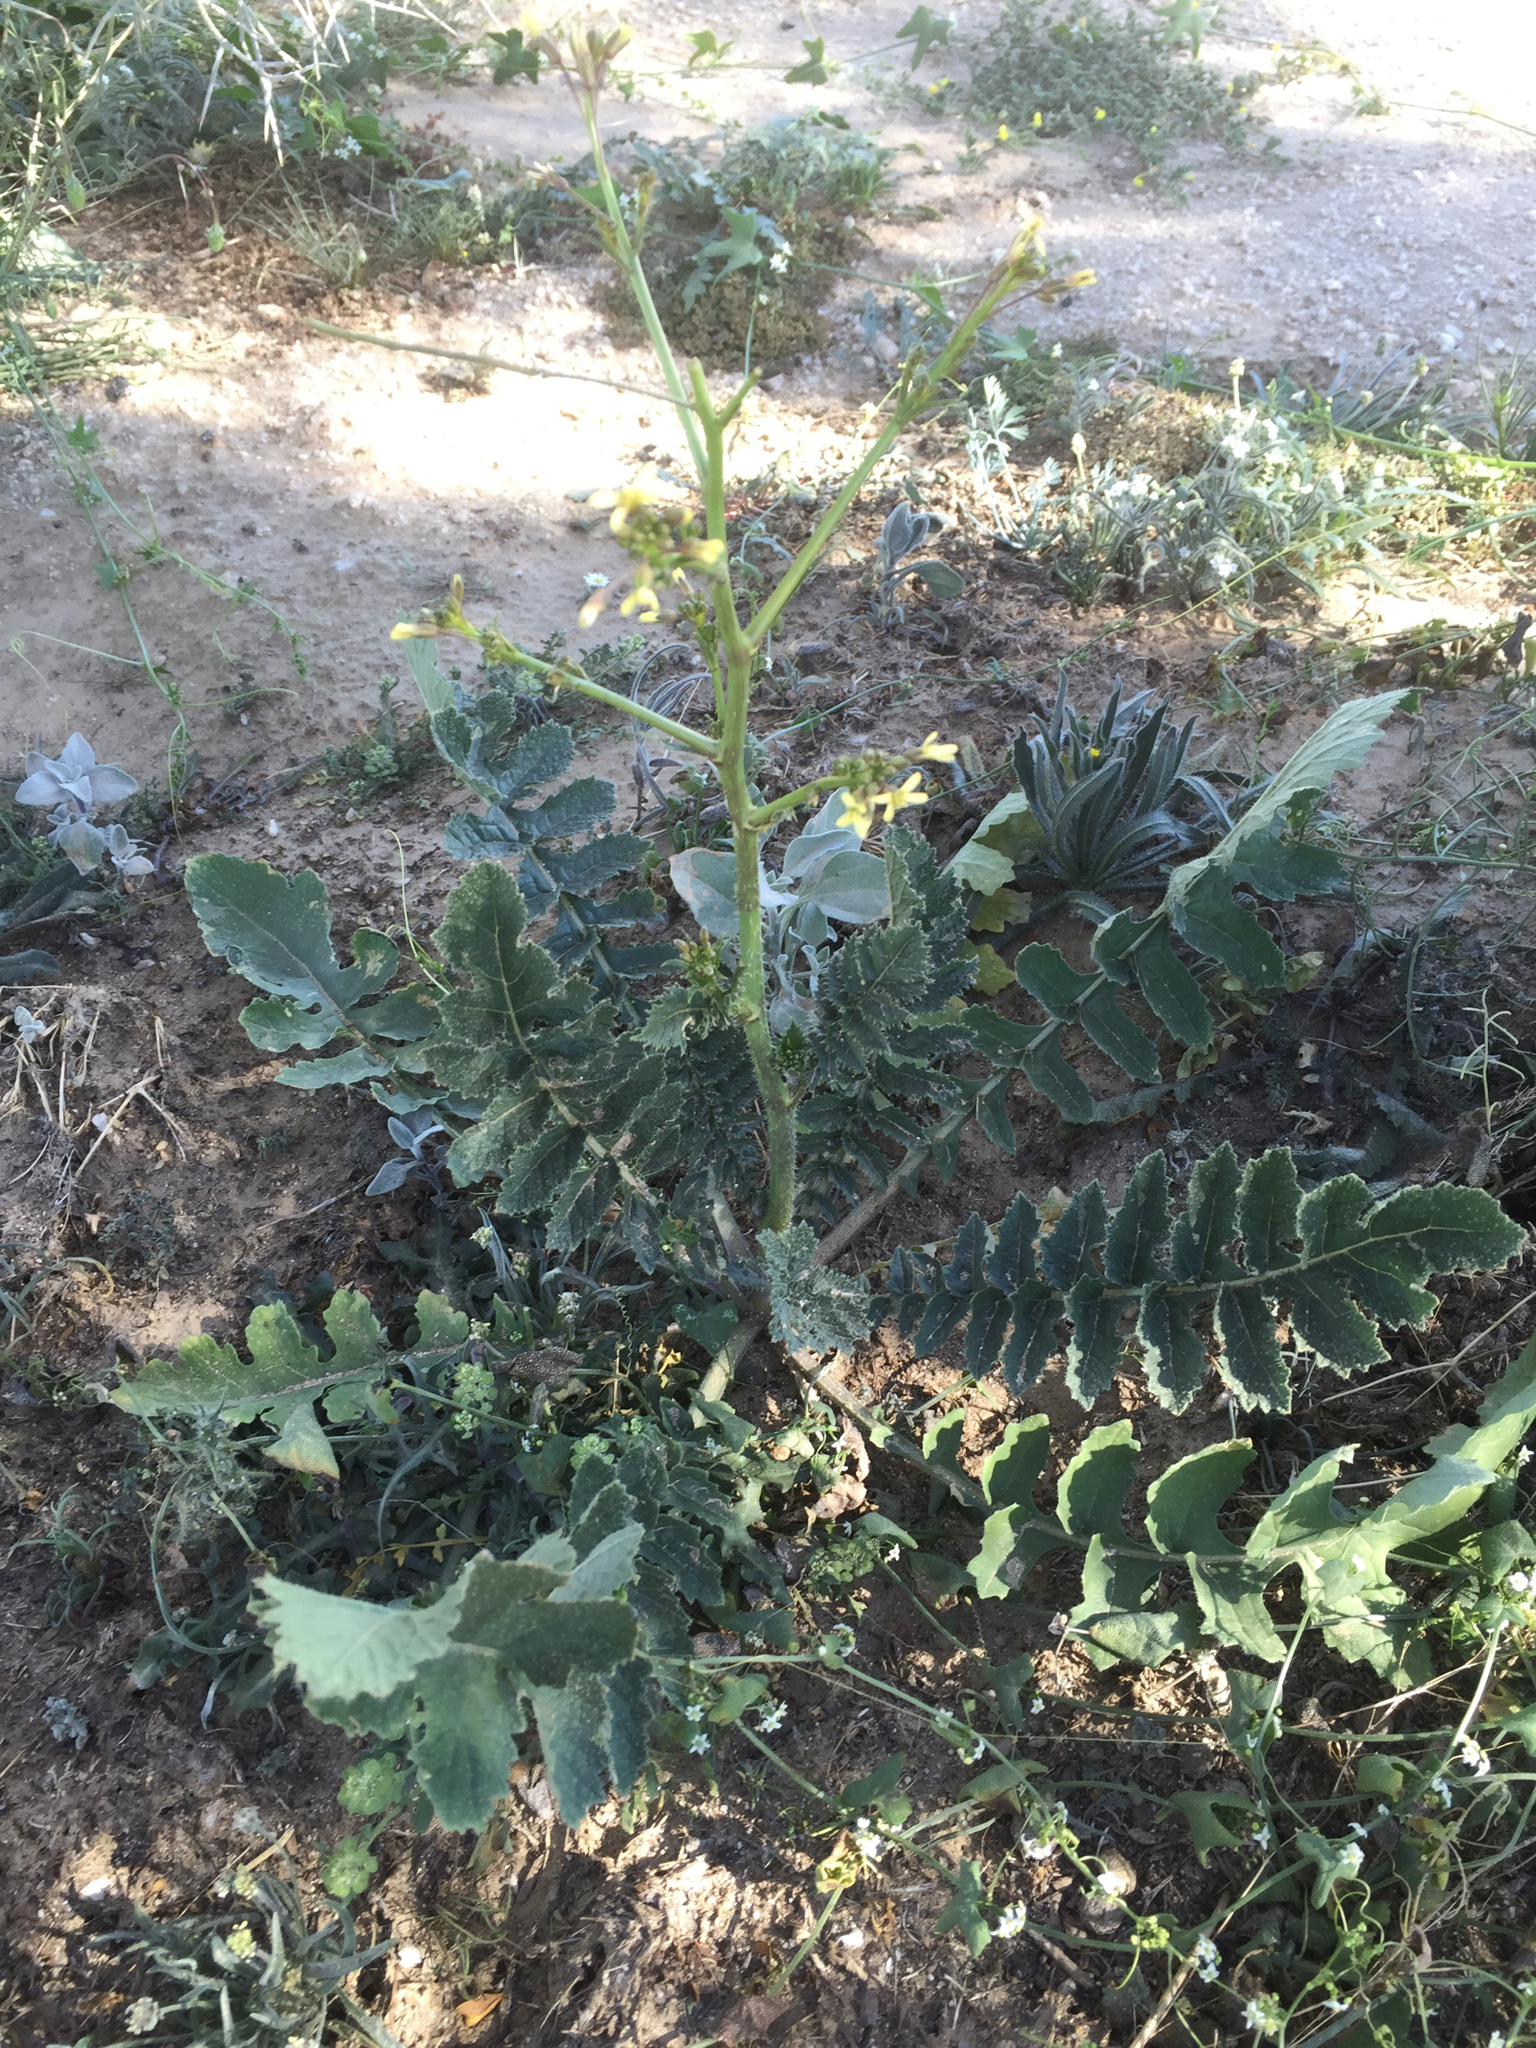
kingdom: Plantae
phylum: Tracheophyta
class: Magnoliopsida
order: Brassicales
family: Brassicaceae
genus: Brassica
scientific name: Brassica tournefortii
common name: Pale cabbage
